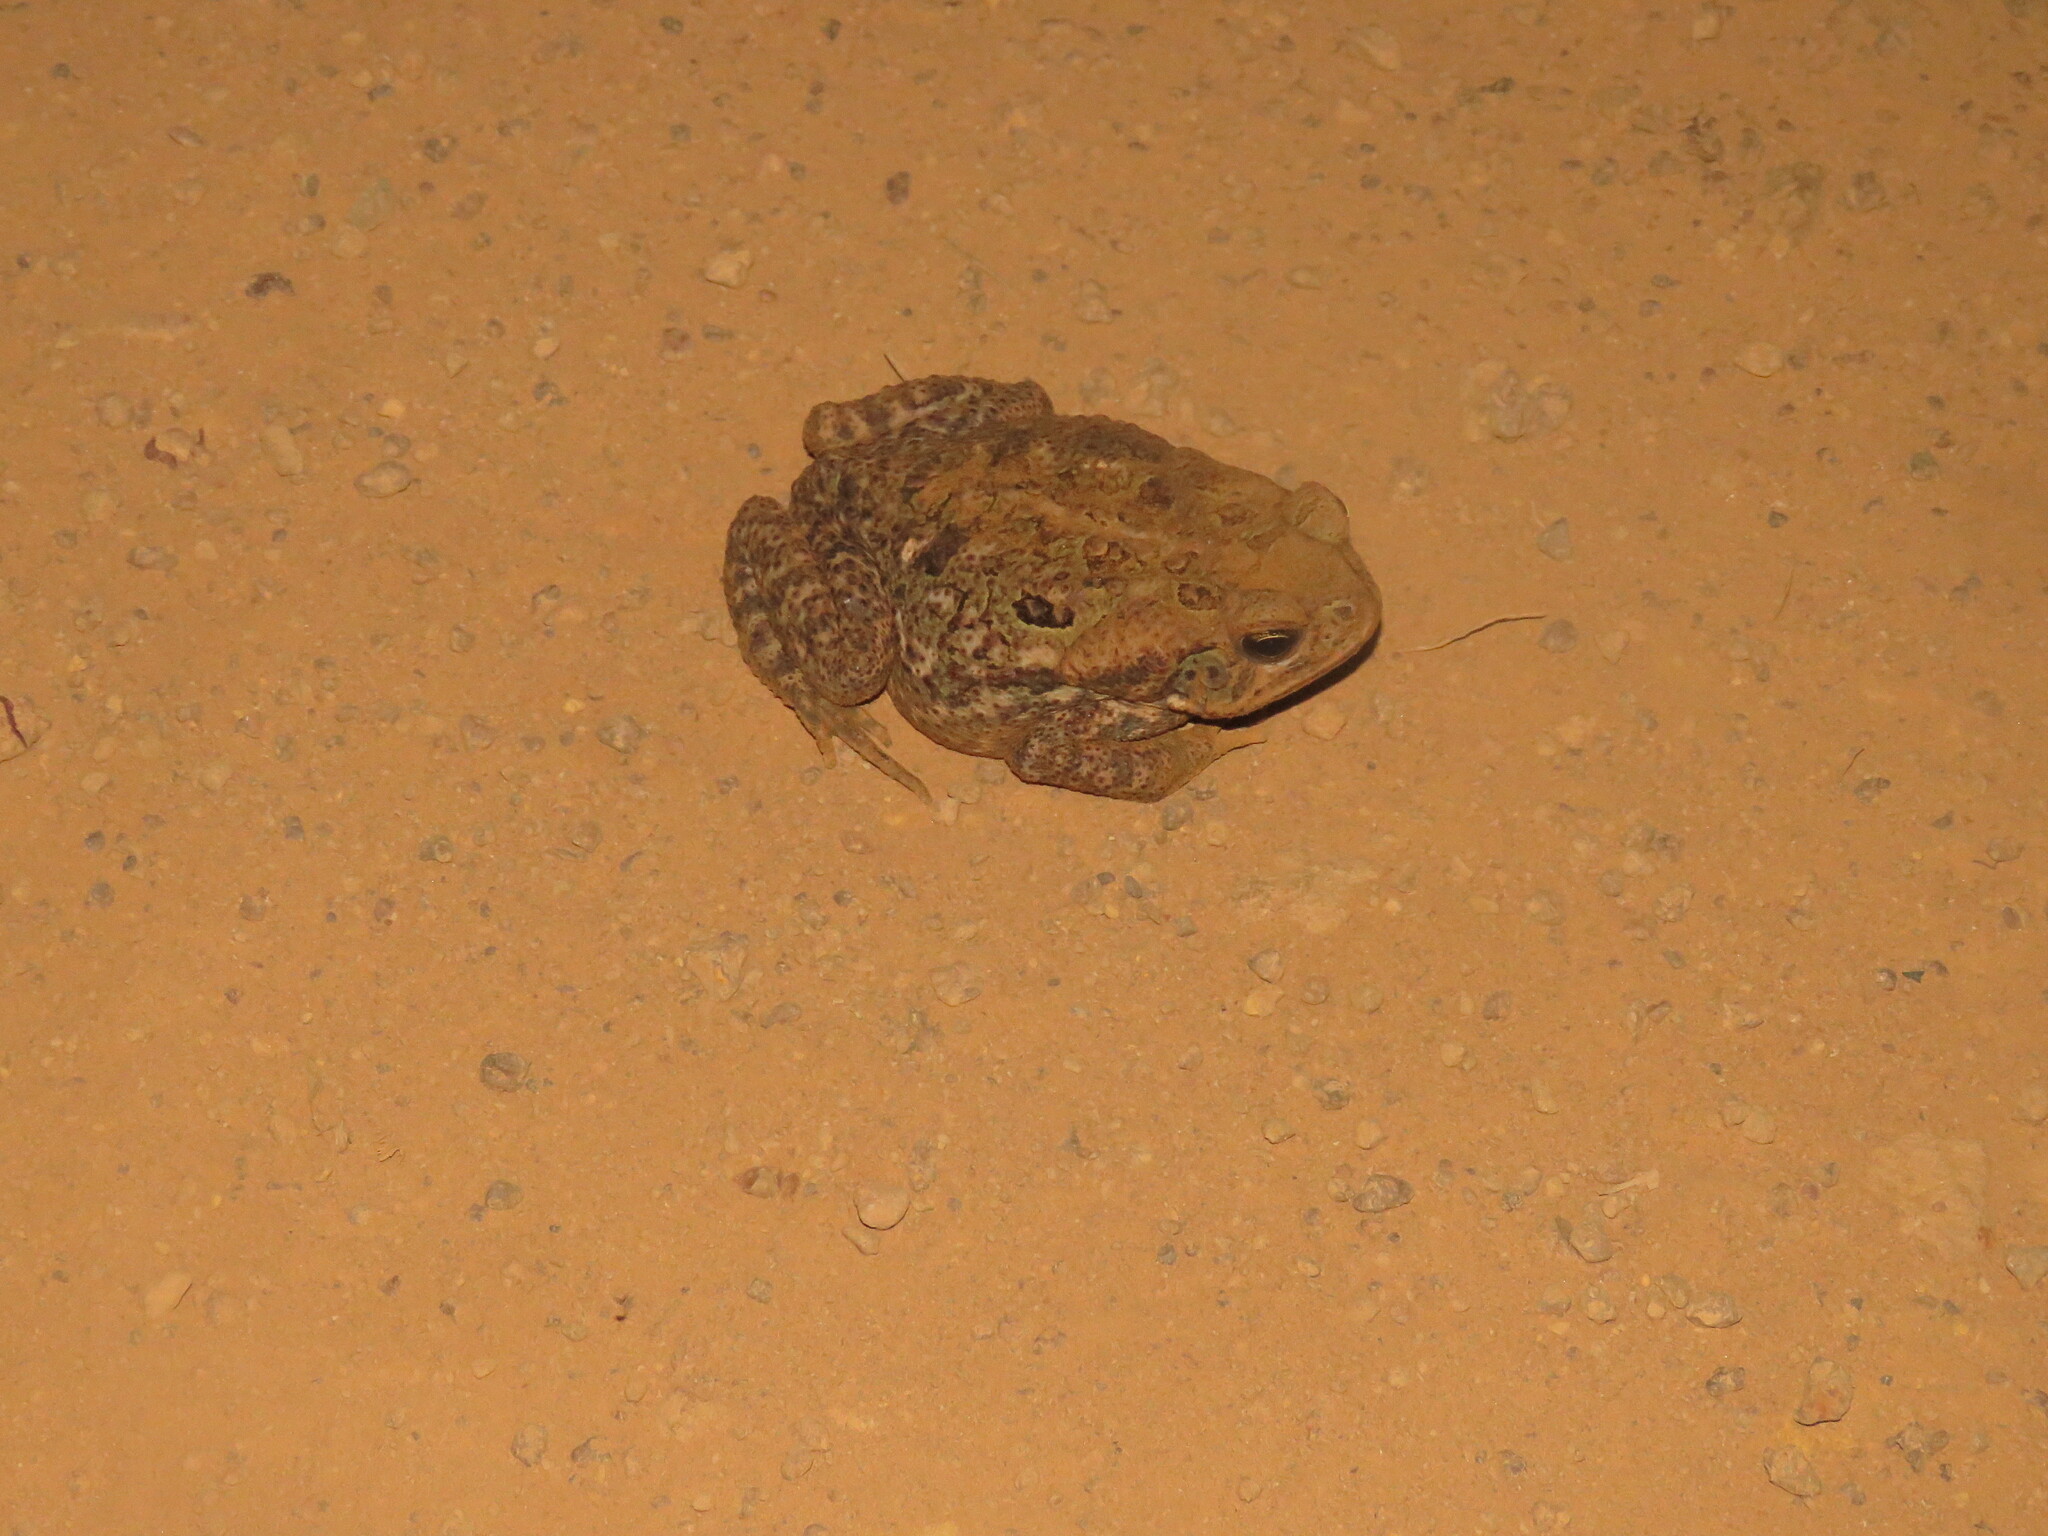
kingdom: Animalia
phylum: Chordata
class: Amphibia
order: Anura
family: Bufonidae
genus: Rhinella
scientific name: Rhinella diptycha
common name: Cope's toad
